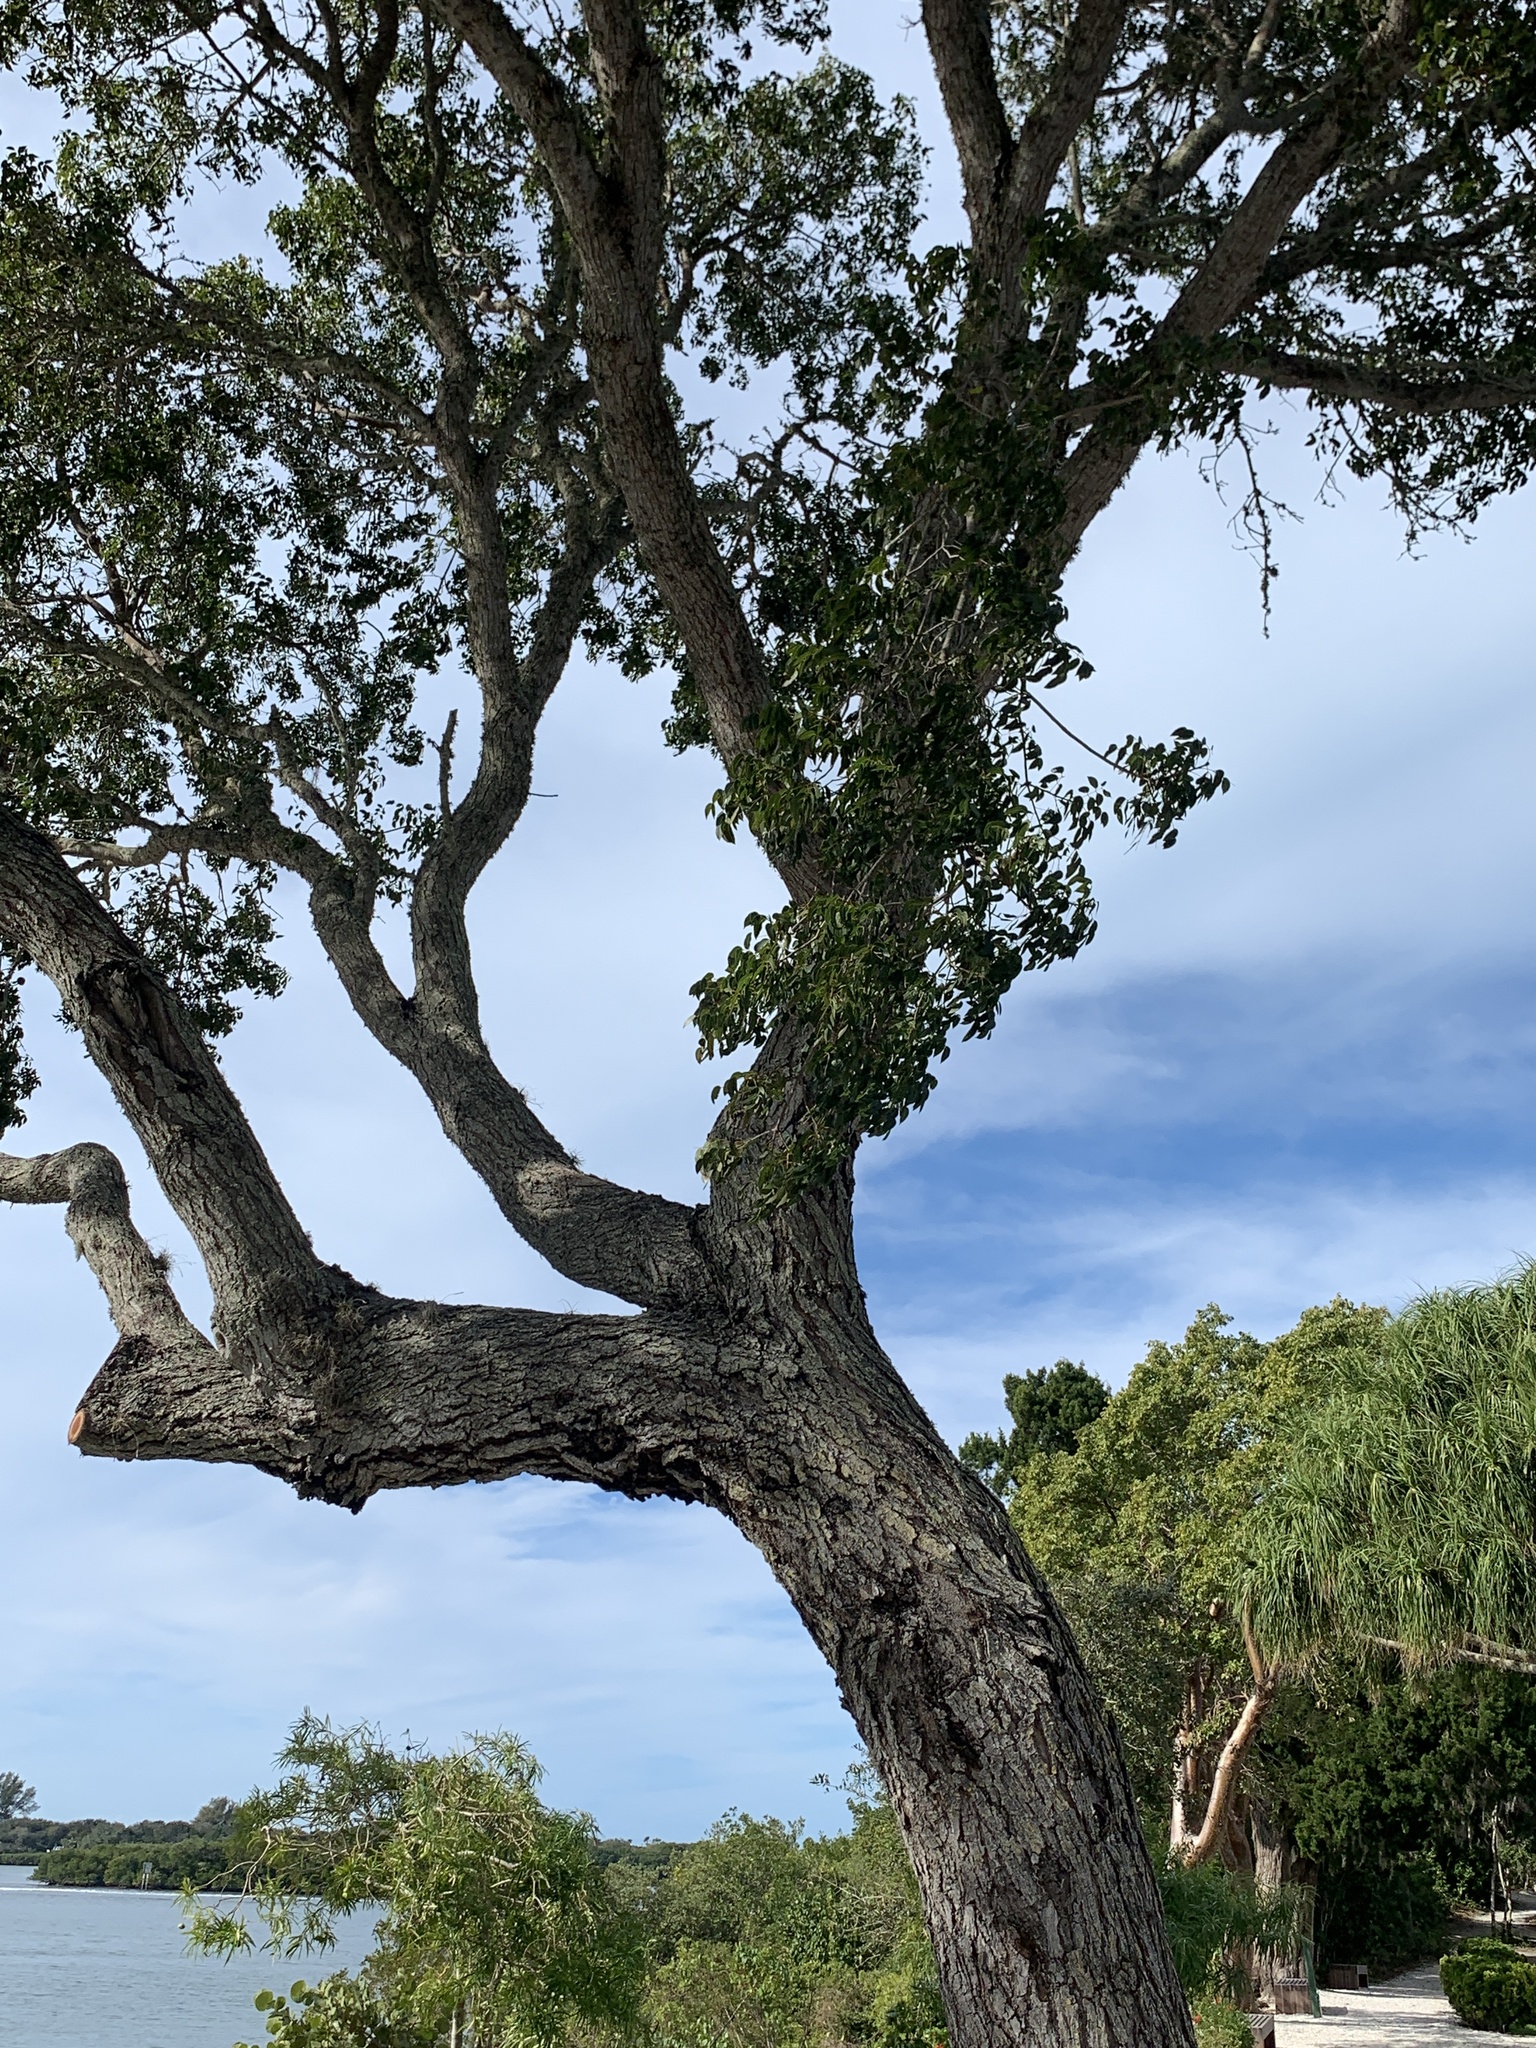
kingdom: Plantae
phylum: Tracheophyta
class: Magnoliopsida
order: Sapindales
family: Meliaceae
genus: Swietenia
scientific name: Swietenia mahagoni
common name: West indian mahogany
